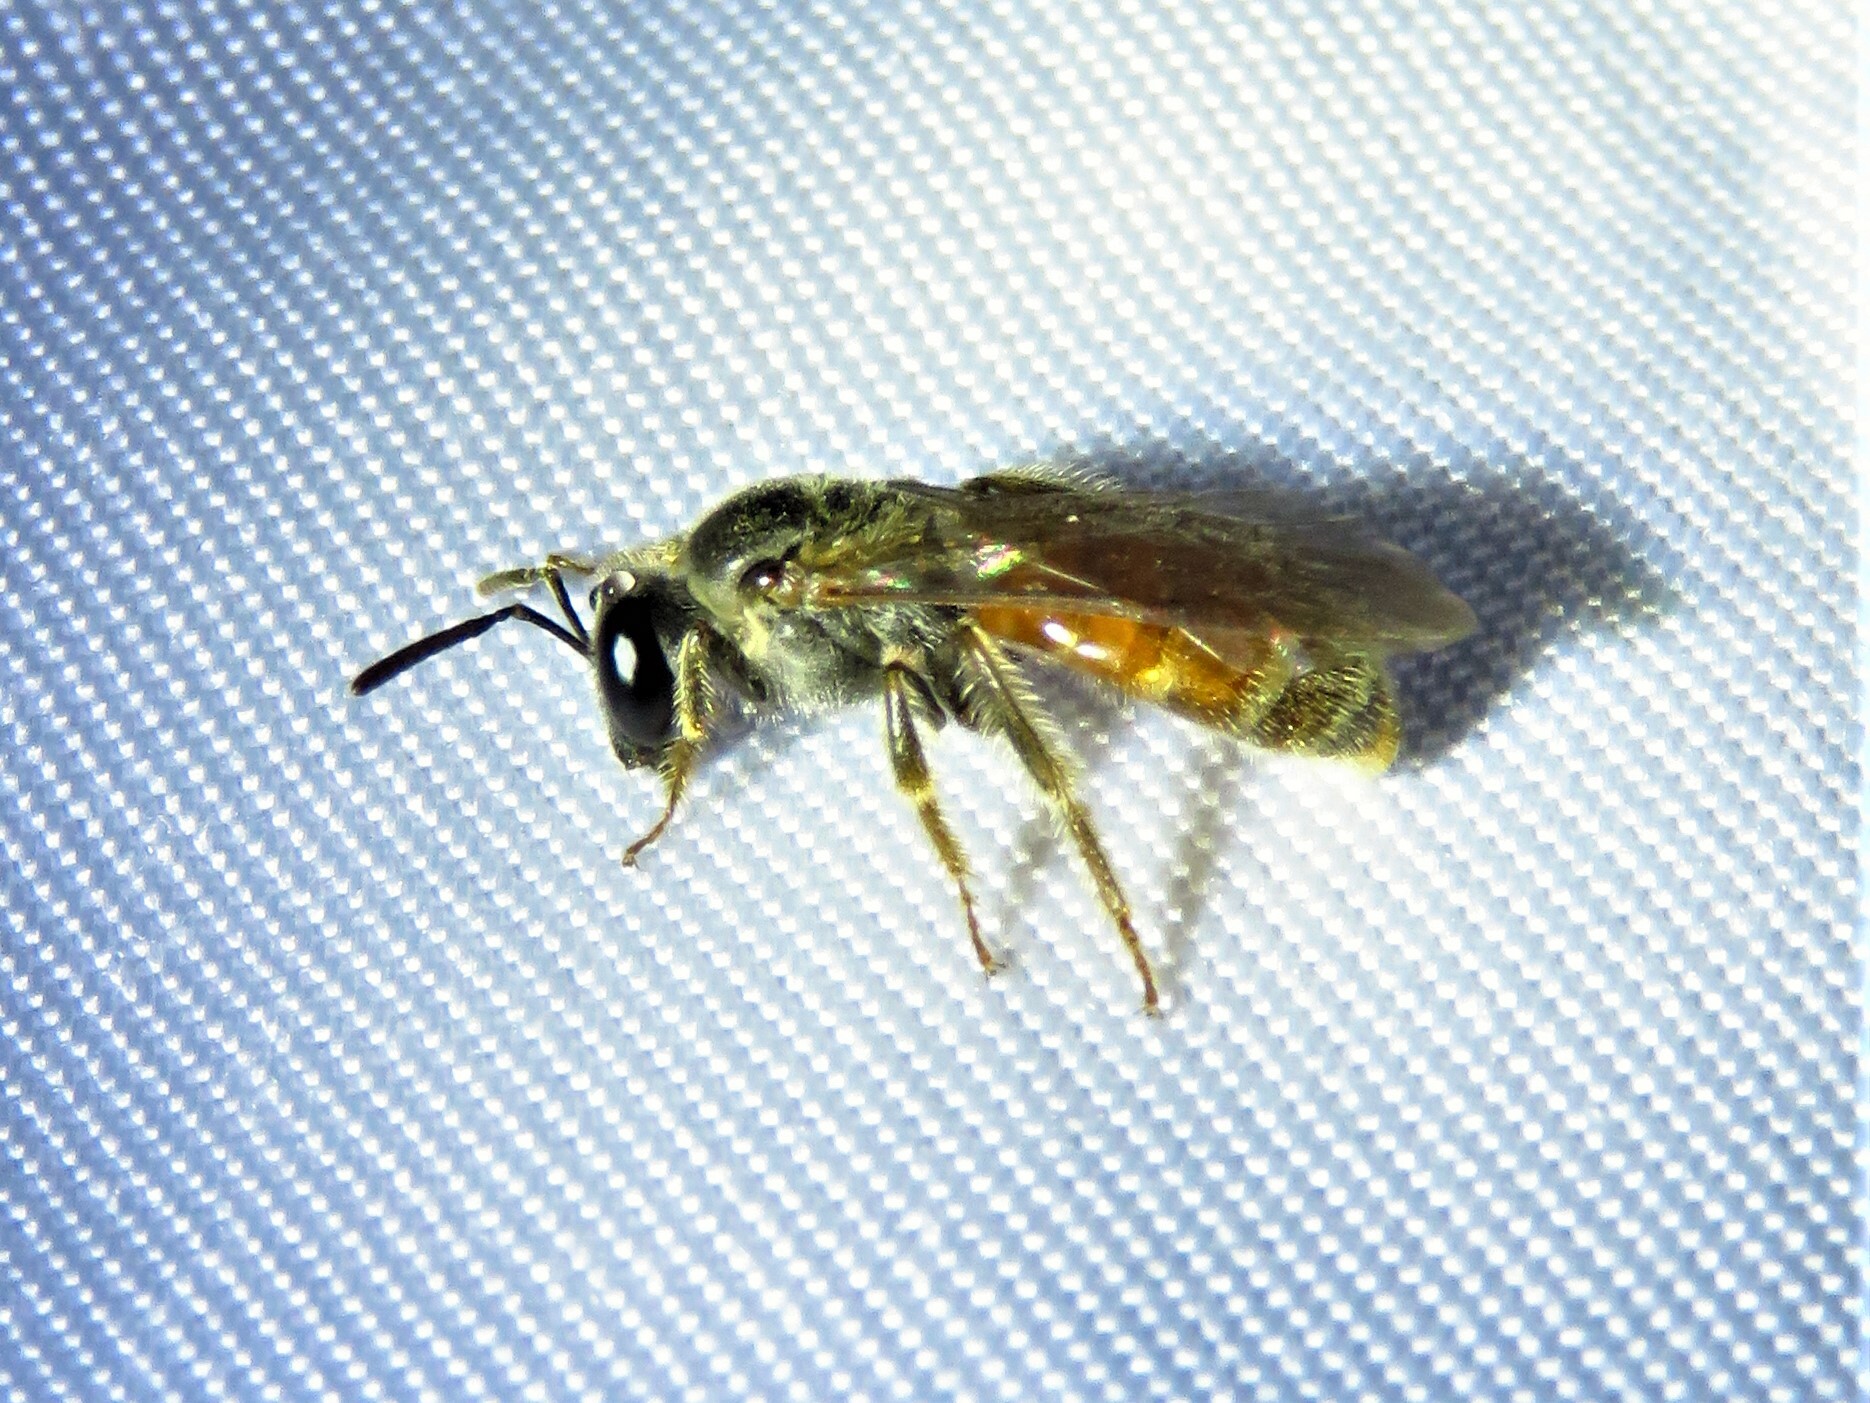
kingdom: Animalia
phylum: Arthropoda
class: Insecta
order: Hymenoptera
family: Halictidae
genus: Lasioglossum
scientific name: Lasioglossum texanum
